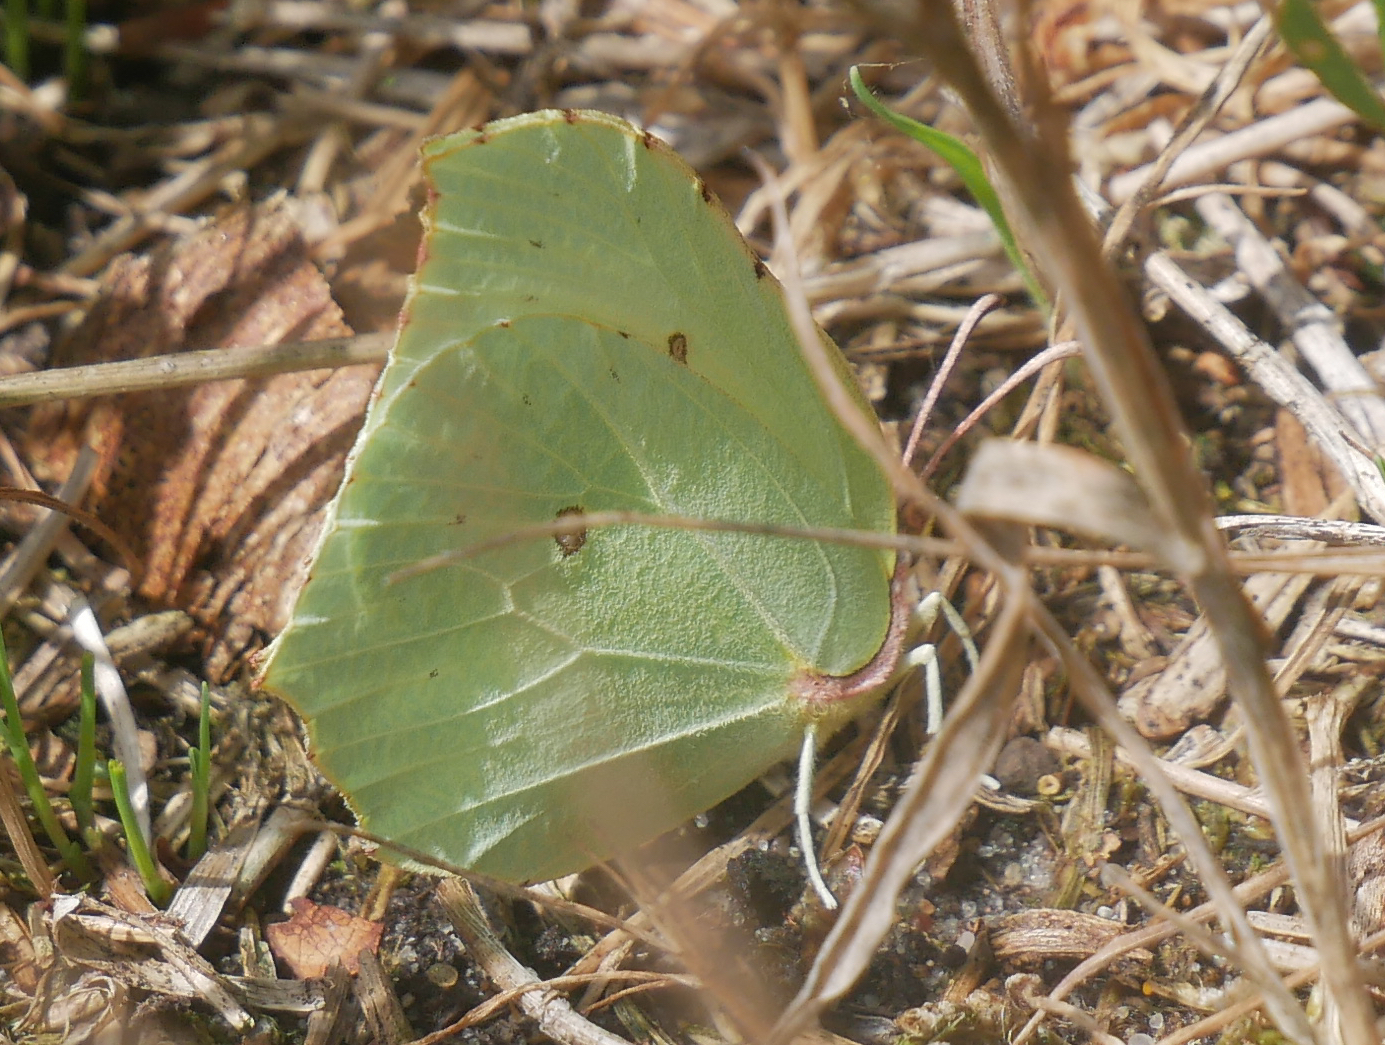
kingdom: Animalia
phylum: Arthropoda
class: Insecta
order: Lepidoptera
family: Pieridae
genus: Gonepteryx
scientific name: Gonepteryx rhamni
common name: Brimstone
